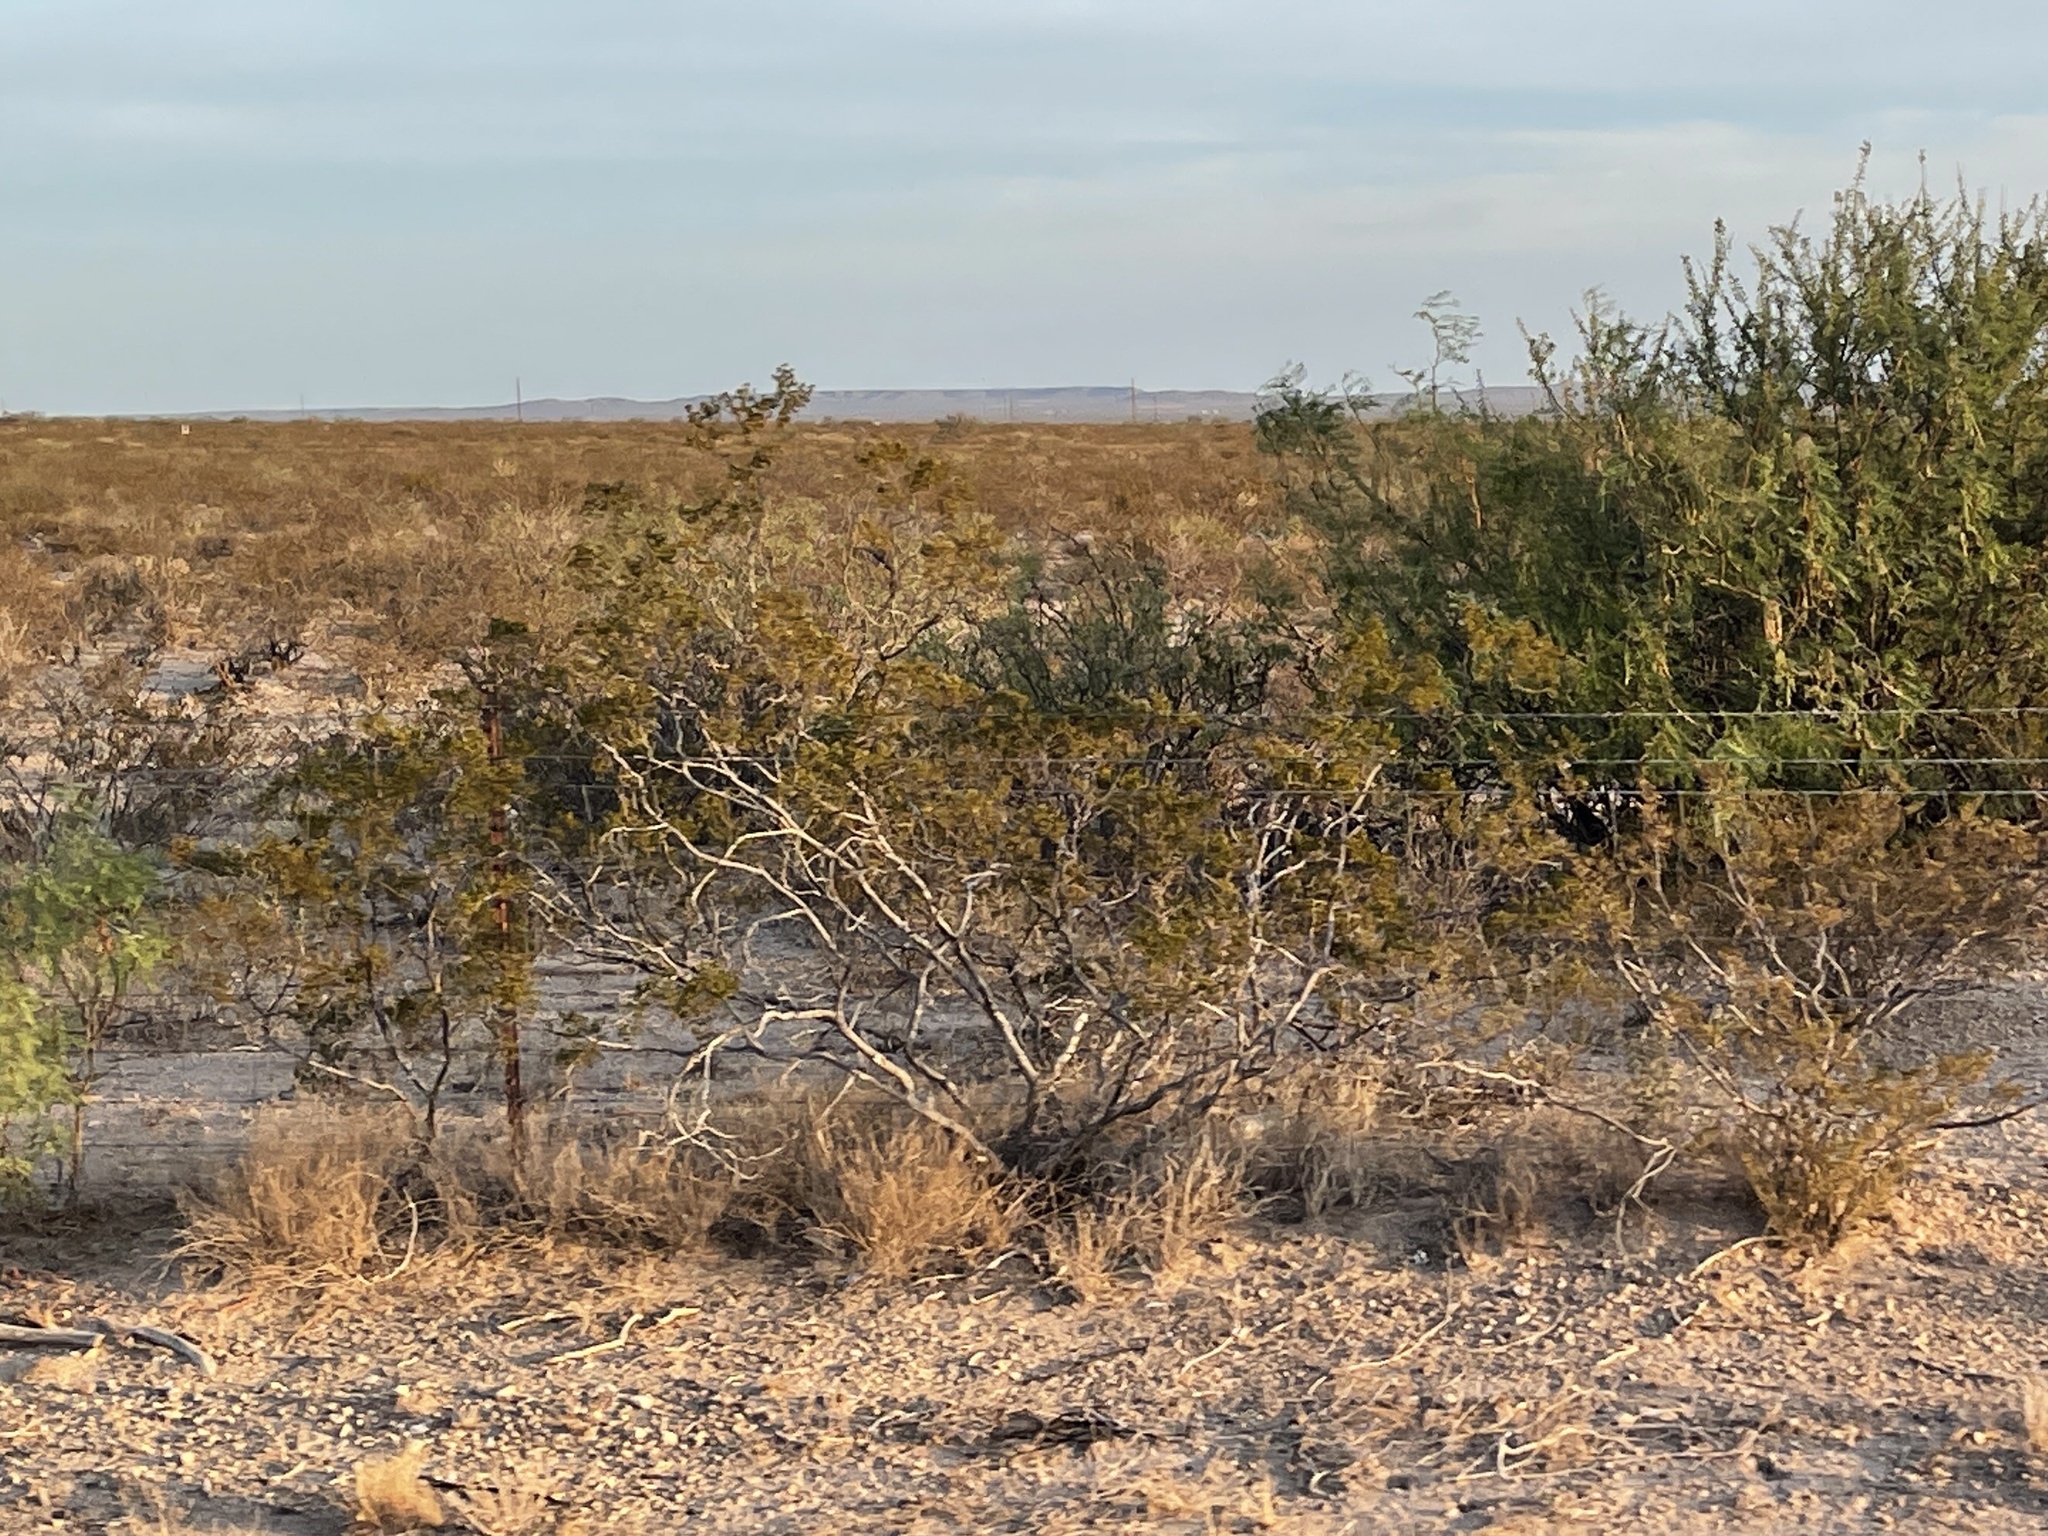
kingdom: Plantae
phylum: Tracheophyta
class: Magnoliopsida
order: Zygophyllales
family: Zygophyllaceae
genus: Larrea
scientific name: Larrea tridentata
